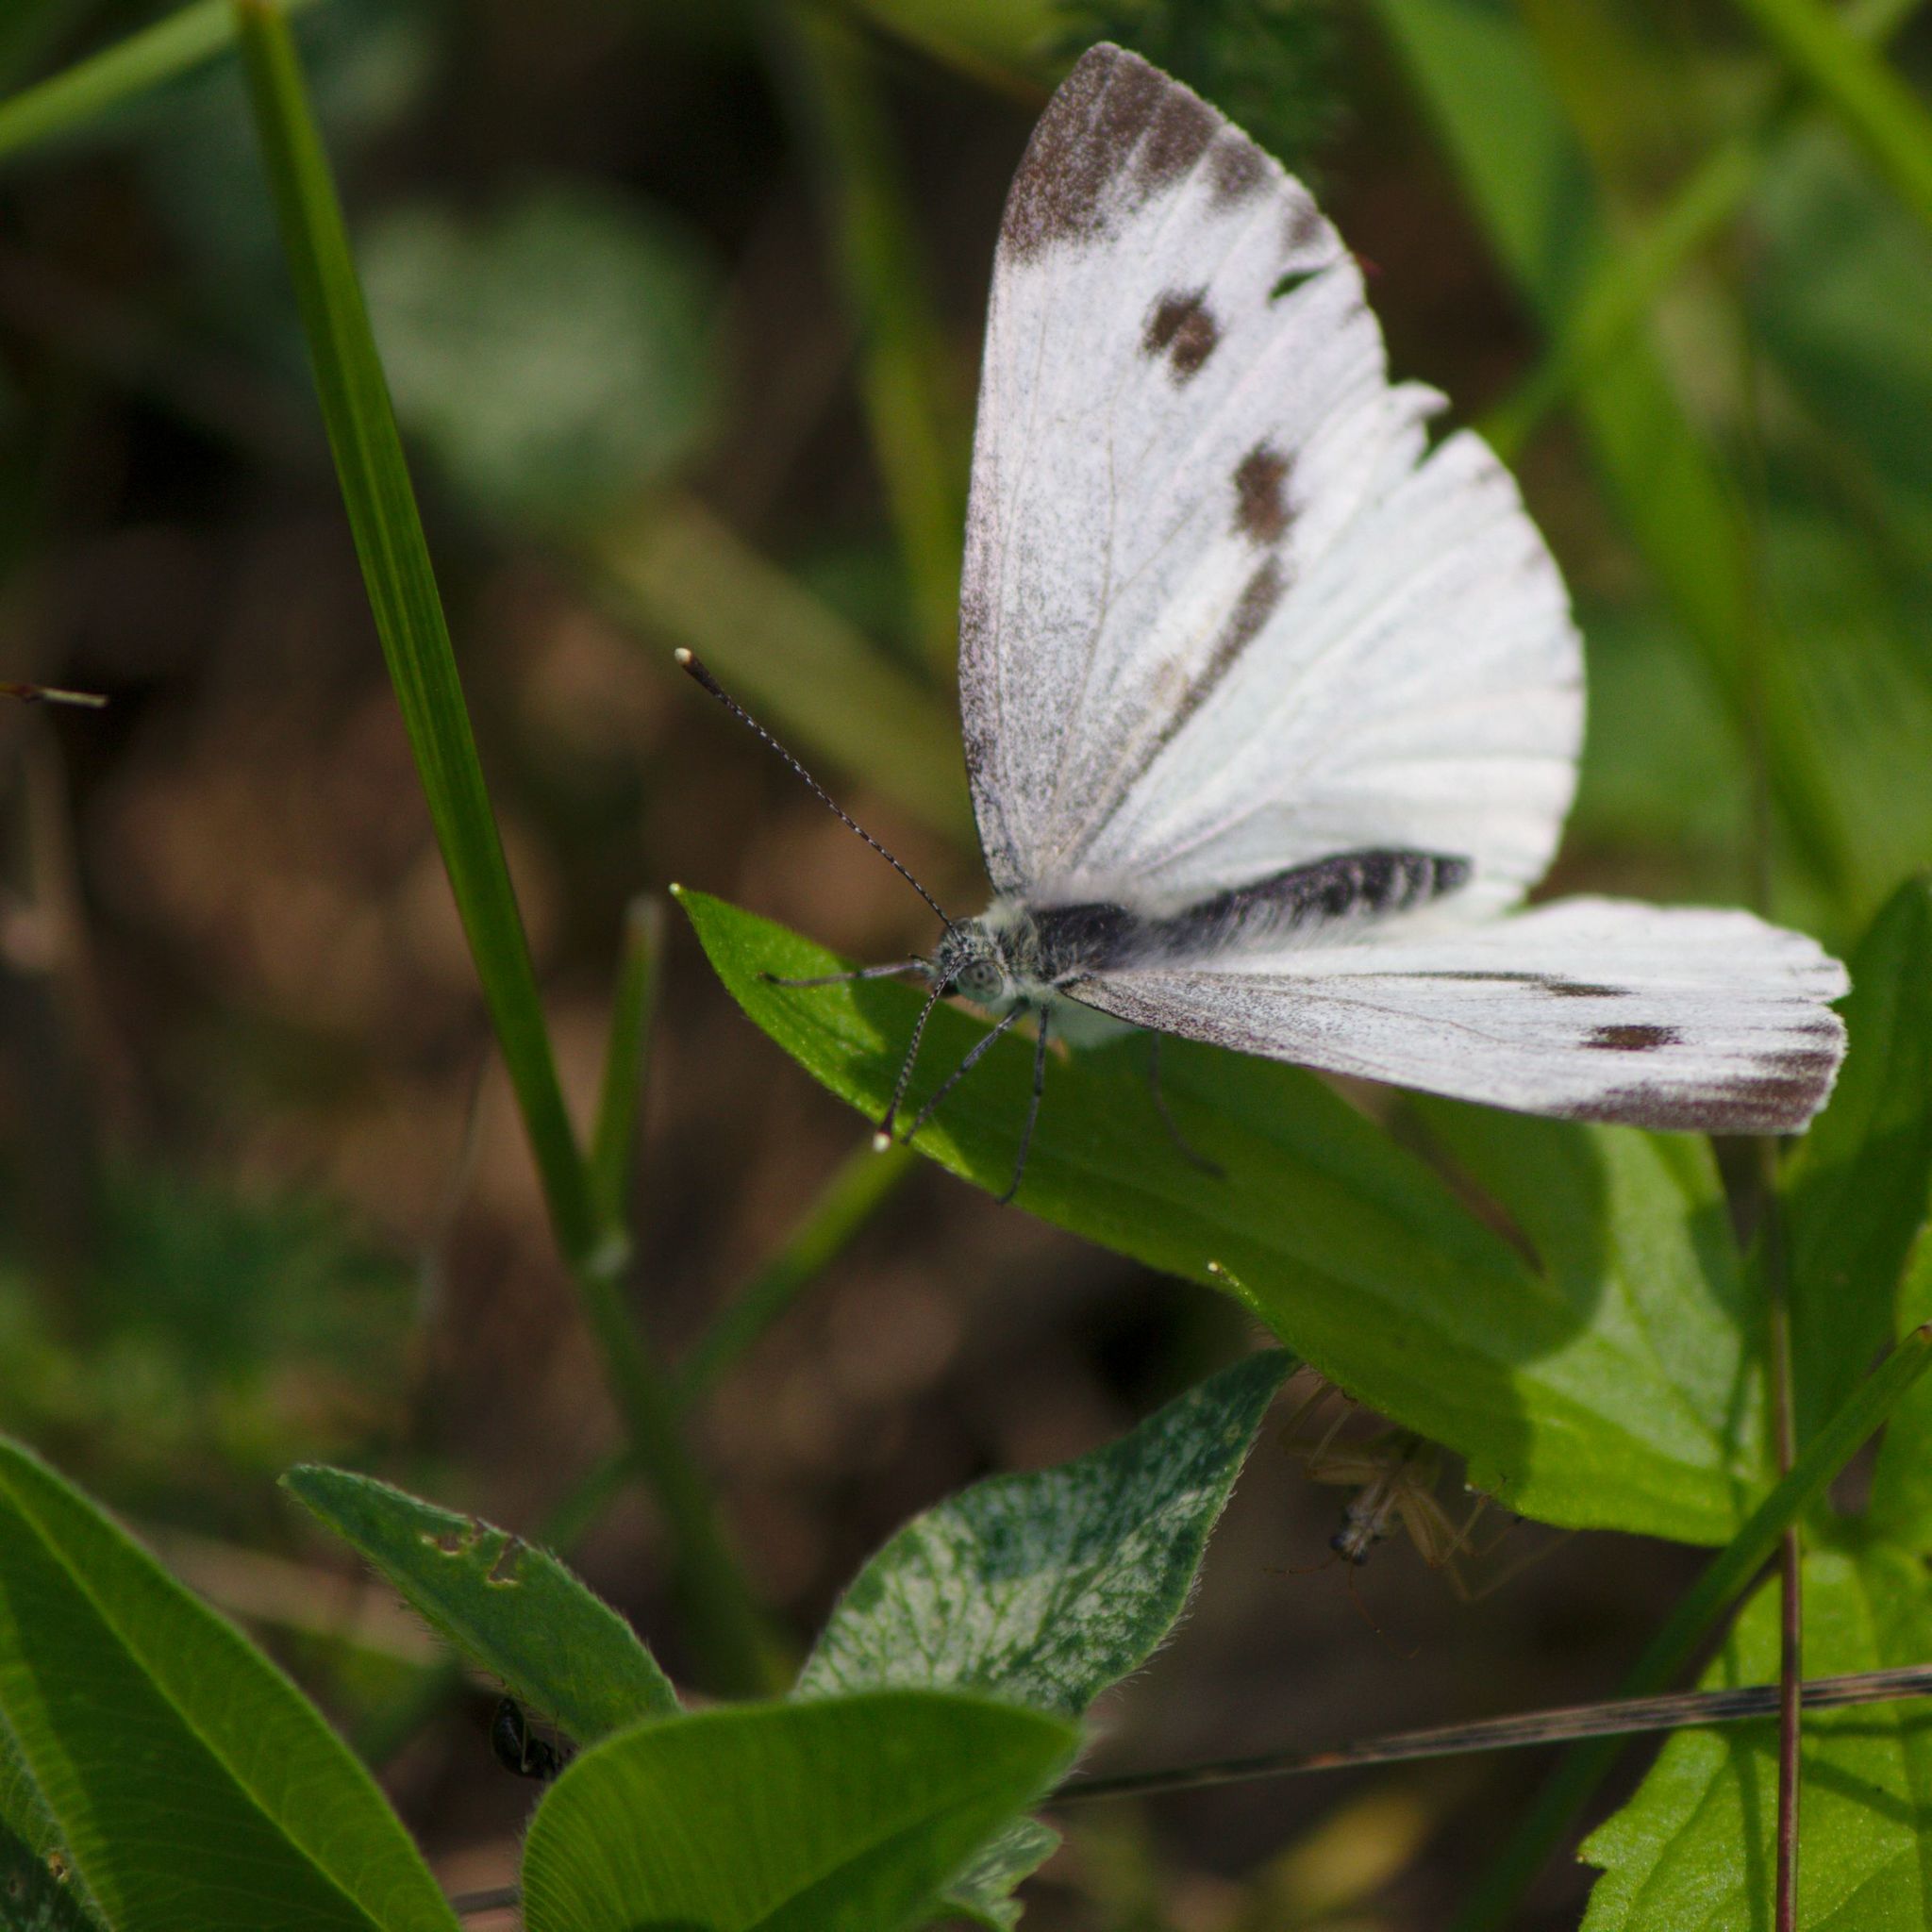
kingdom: Animalia
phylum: Arthropoda
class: Insecta
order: Lepidoptera
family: Pieridae
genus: Pieris
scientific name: Pieris napi
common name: Green-veined white
